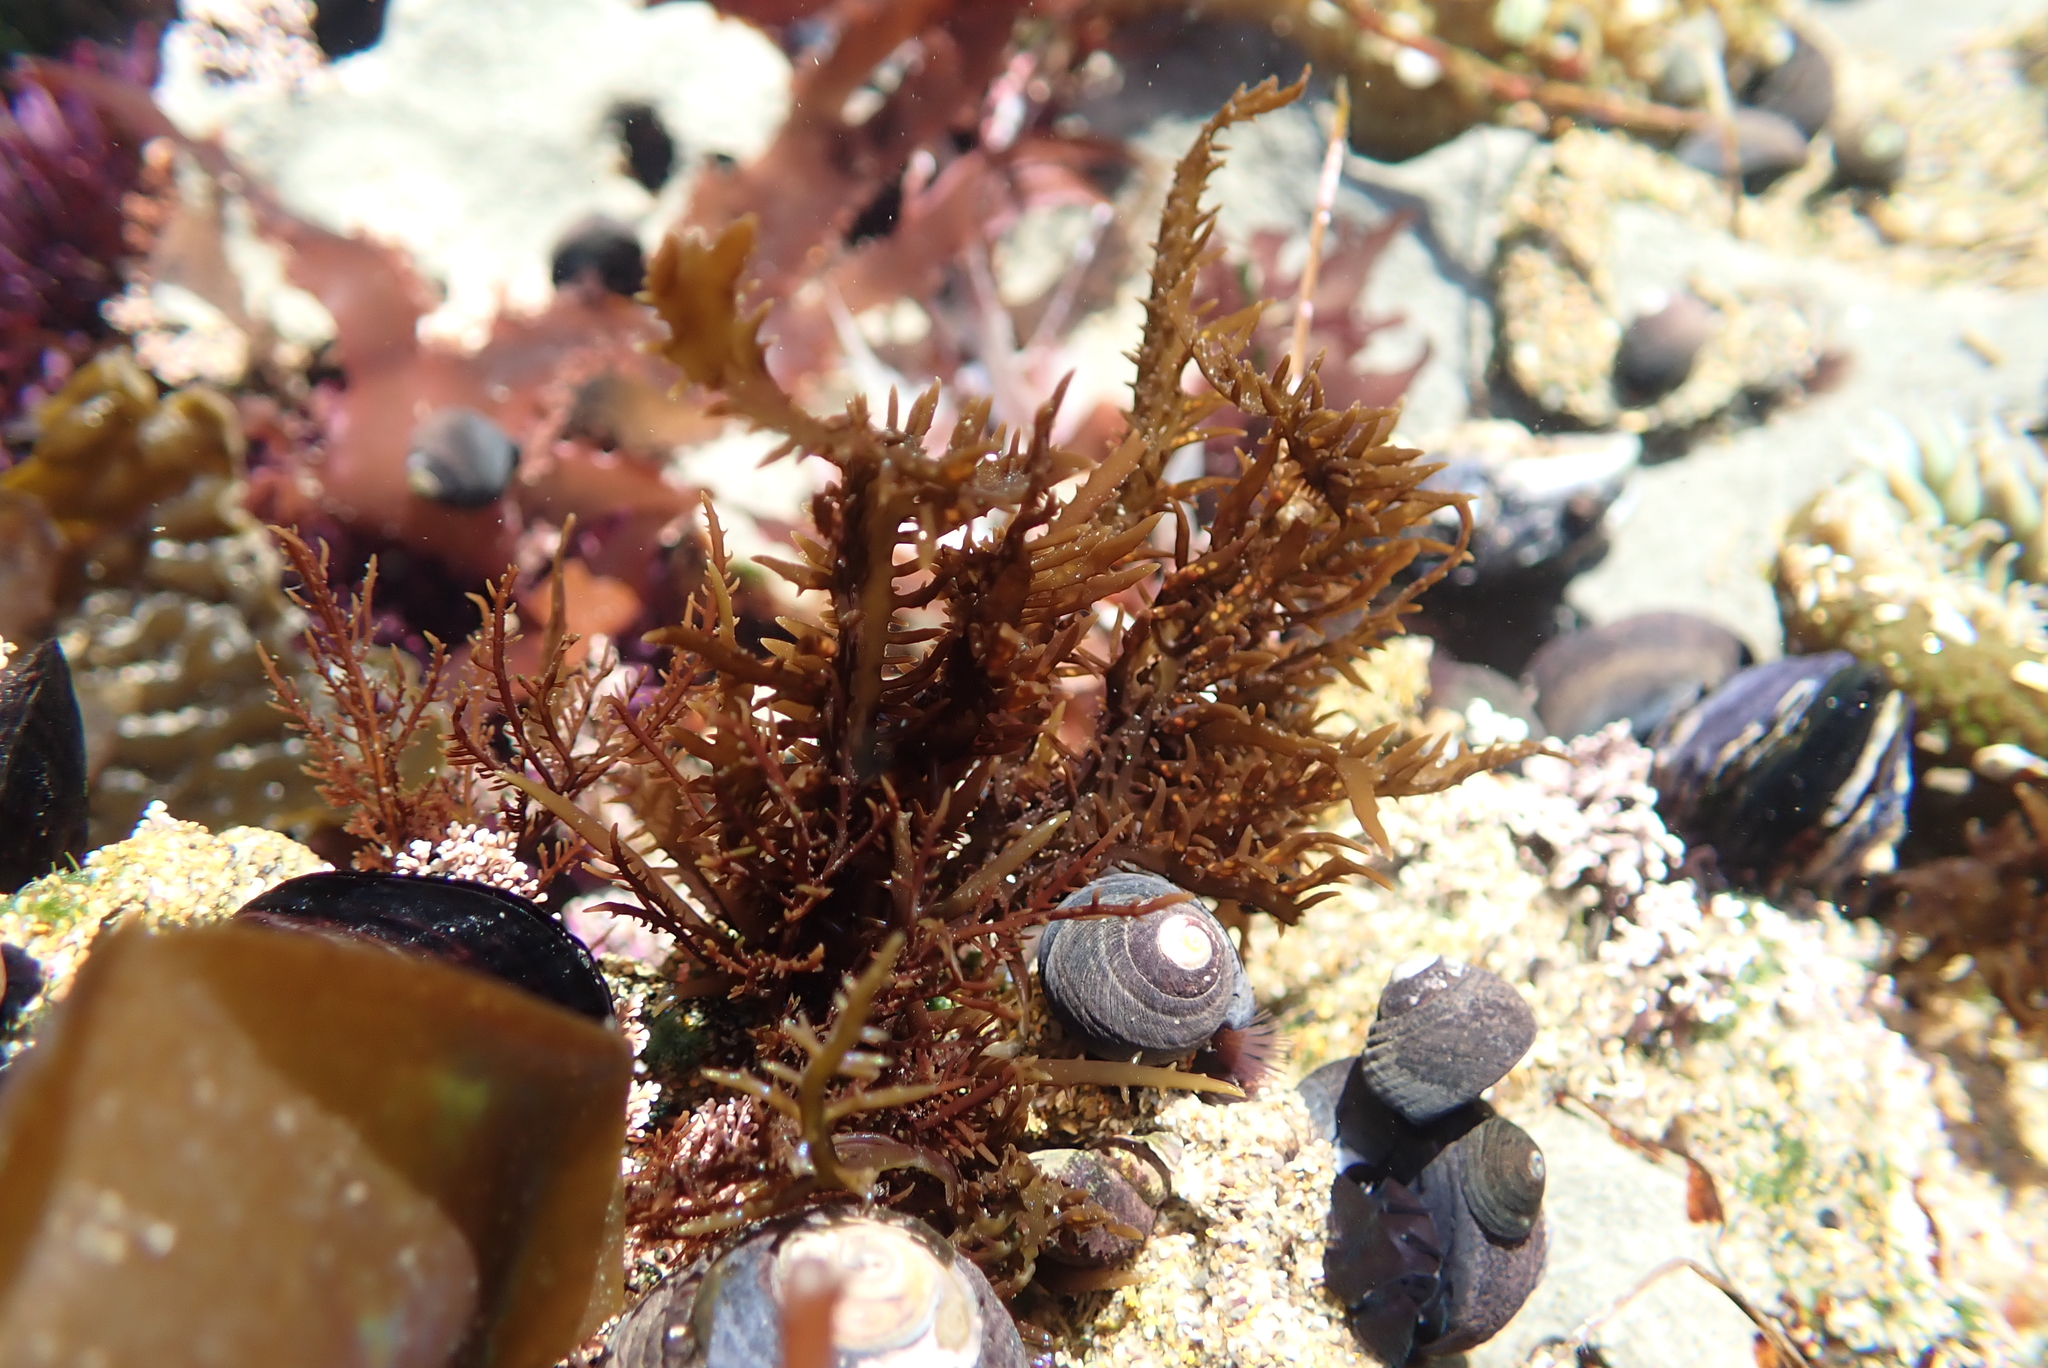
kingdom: Plantae
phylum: Rhodophyta
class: Florideophyceae
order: Gigartinales
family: Gigartinaceae
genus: Chondracanthus
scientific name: Chondracanthus canaliculatus
